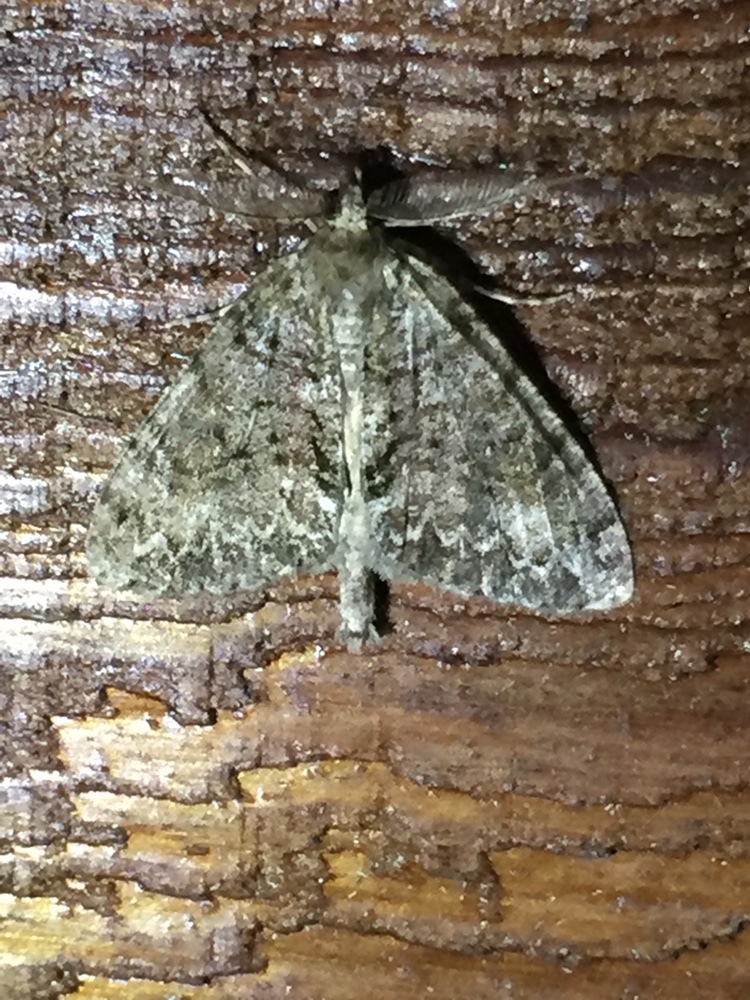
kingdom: Animalia
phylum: Arthropoda
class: Insecta
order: Lepidoptera
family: Geometridae
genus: Pseudocoremia
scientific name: Pseudocoremia suavis
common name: Common forest looper
